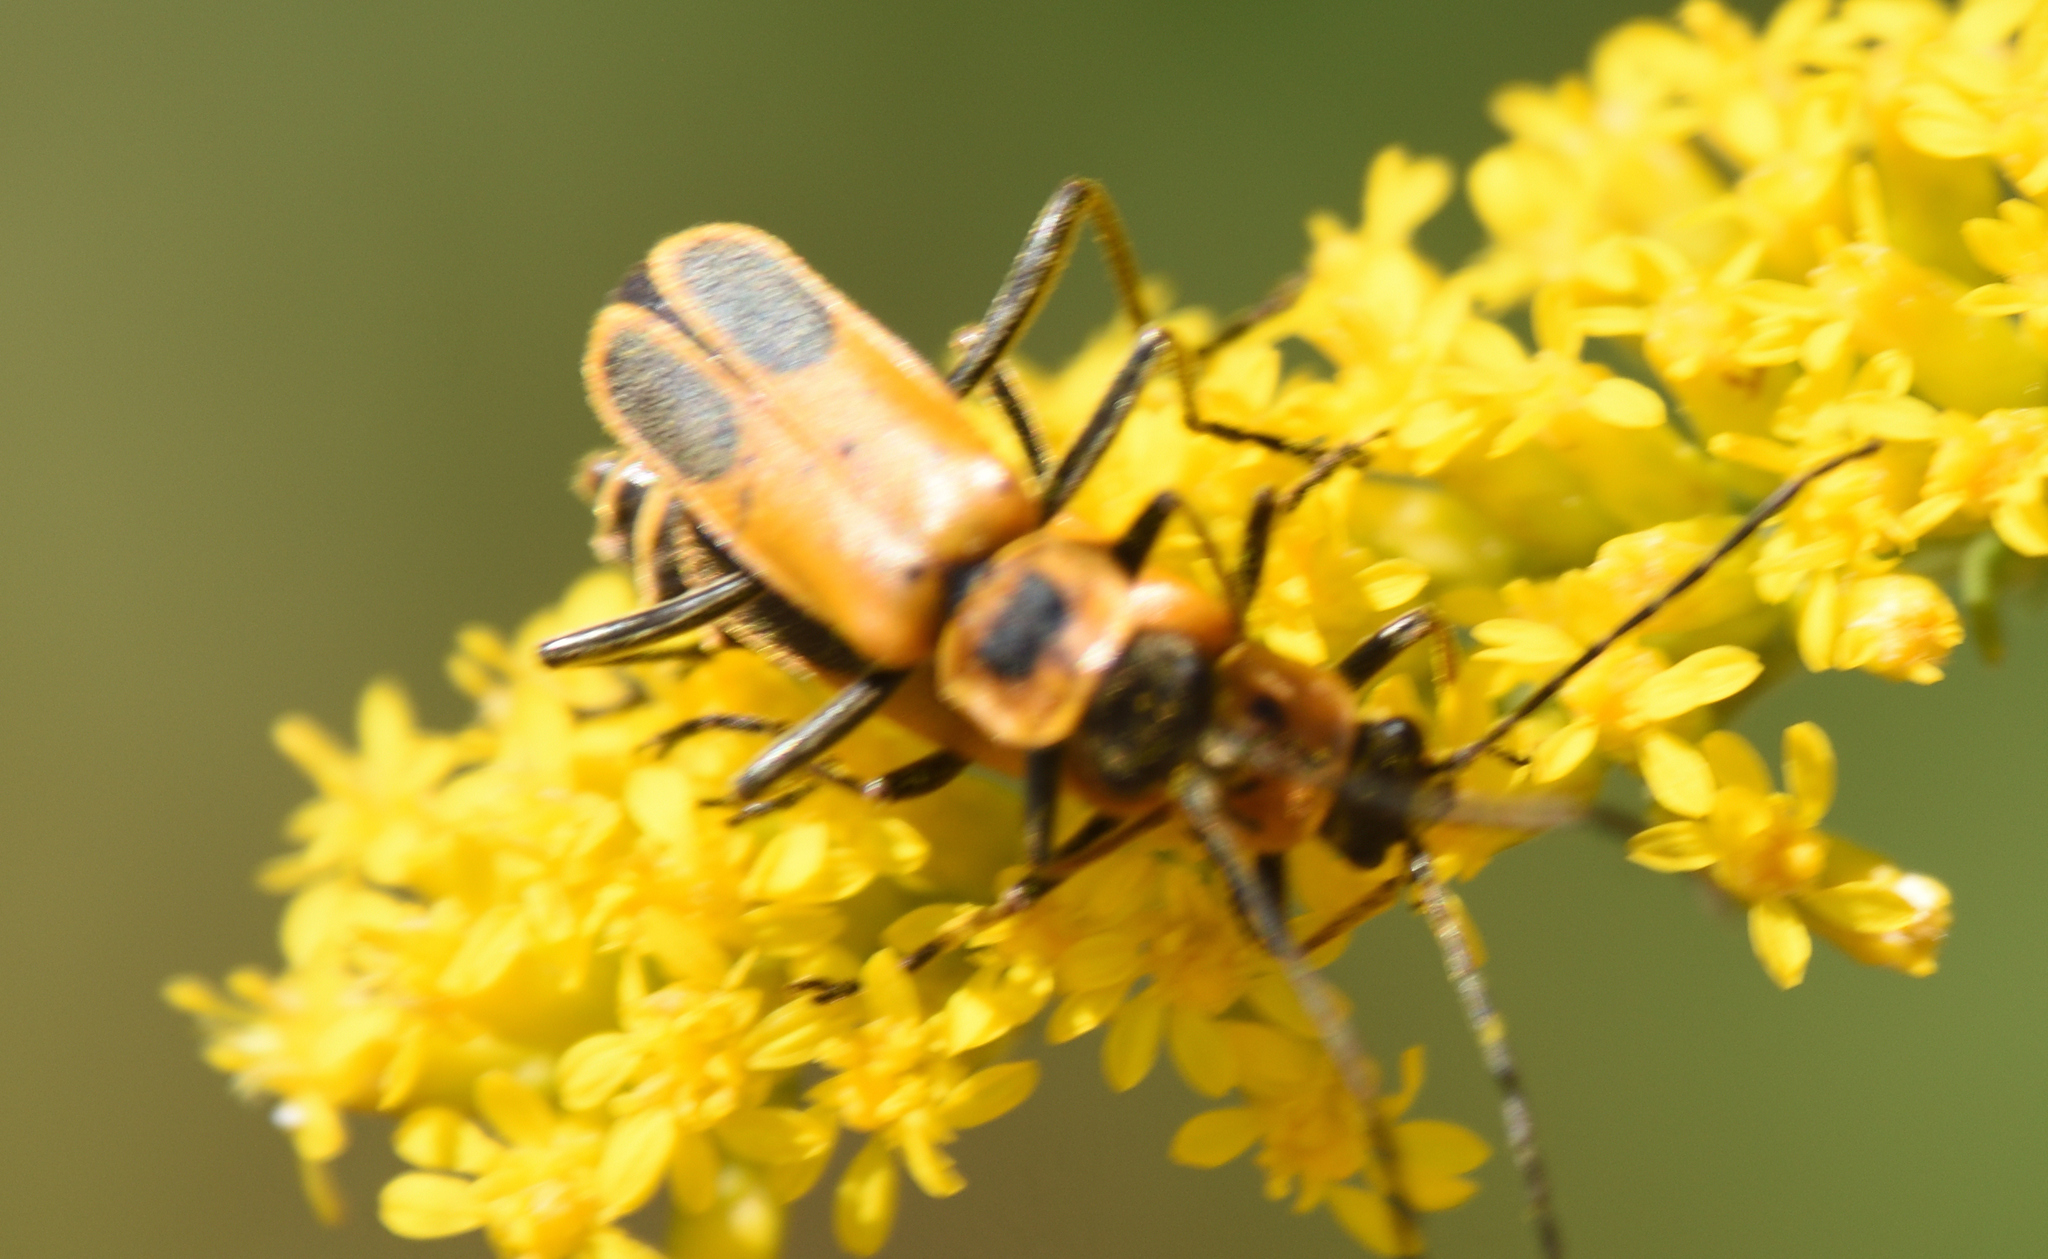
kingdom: Animalia
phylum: Arthropoda
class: Insecta
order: Coleoptera
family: Cantharidae
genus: Chauliognathus
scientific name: Chauliognathus pensylvanicus
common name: Goldenrod soldier beetle
